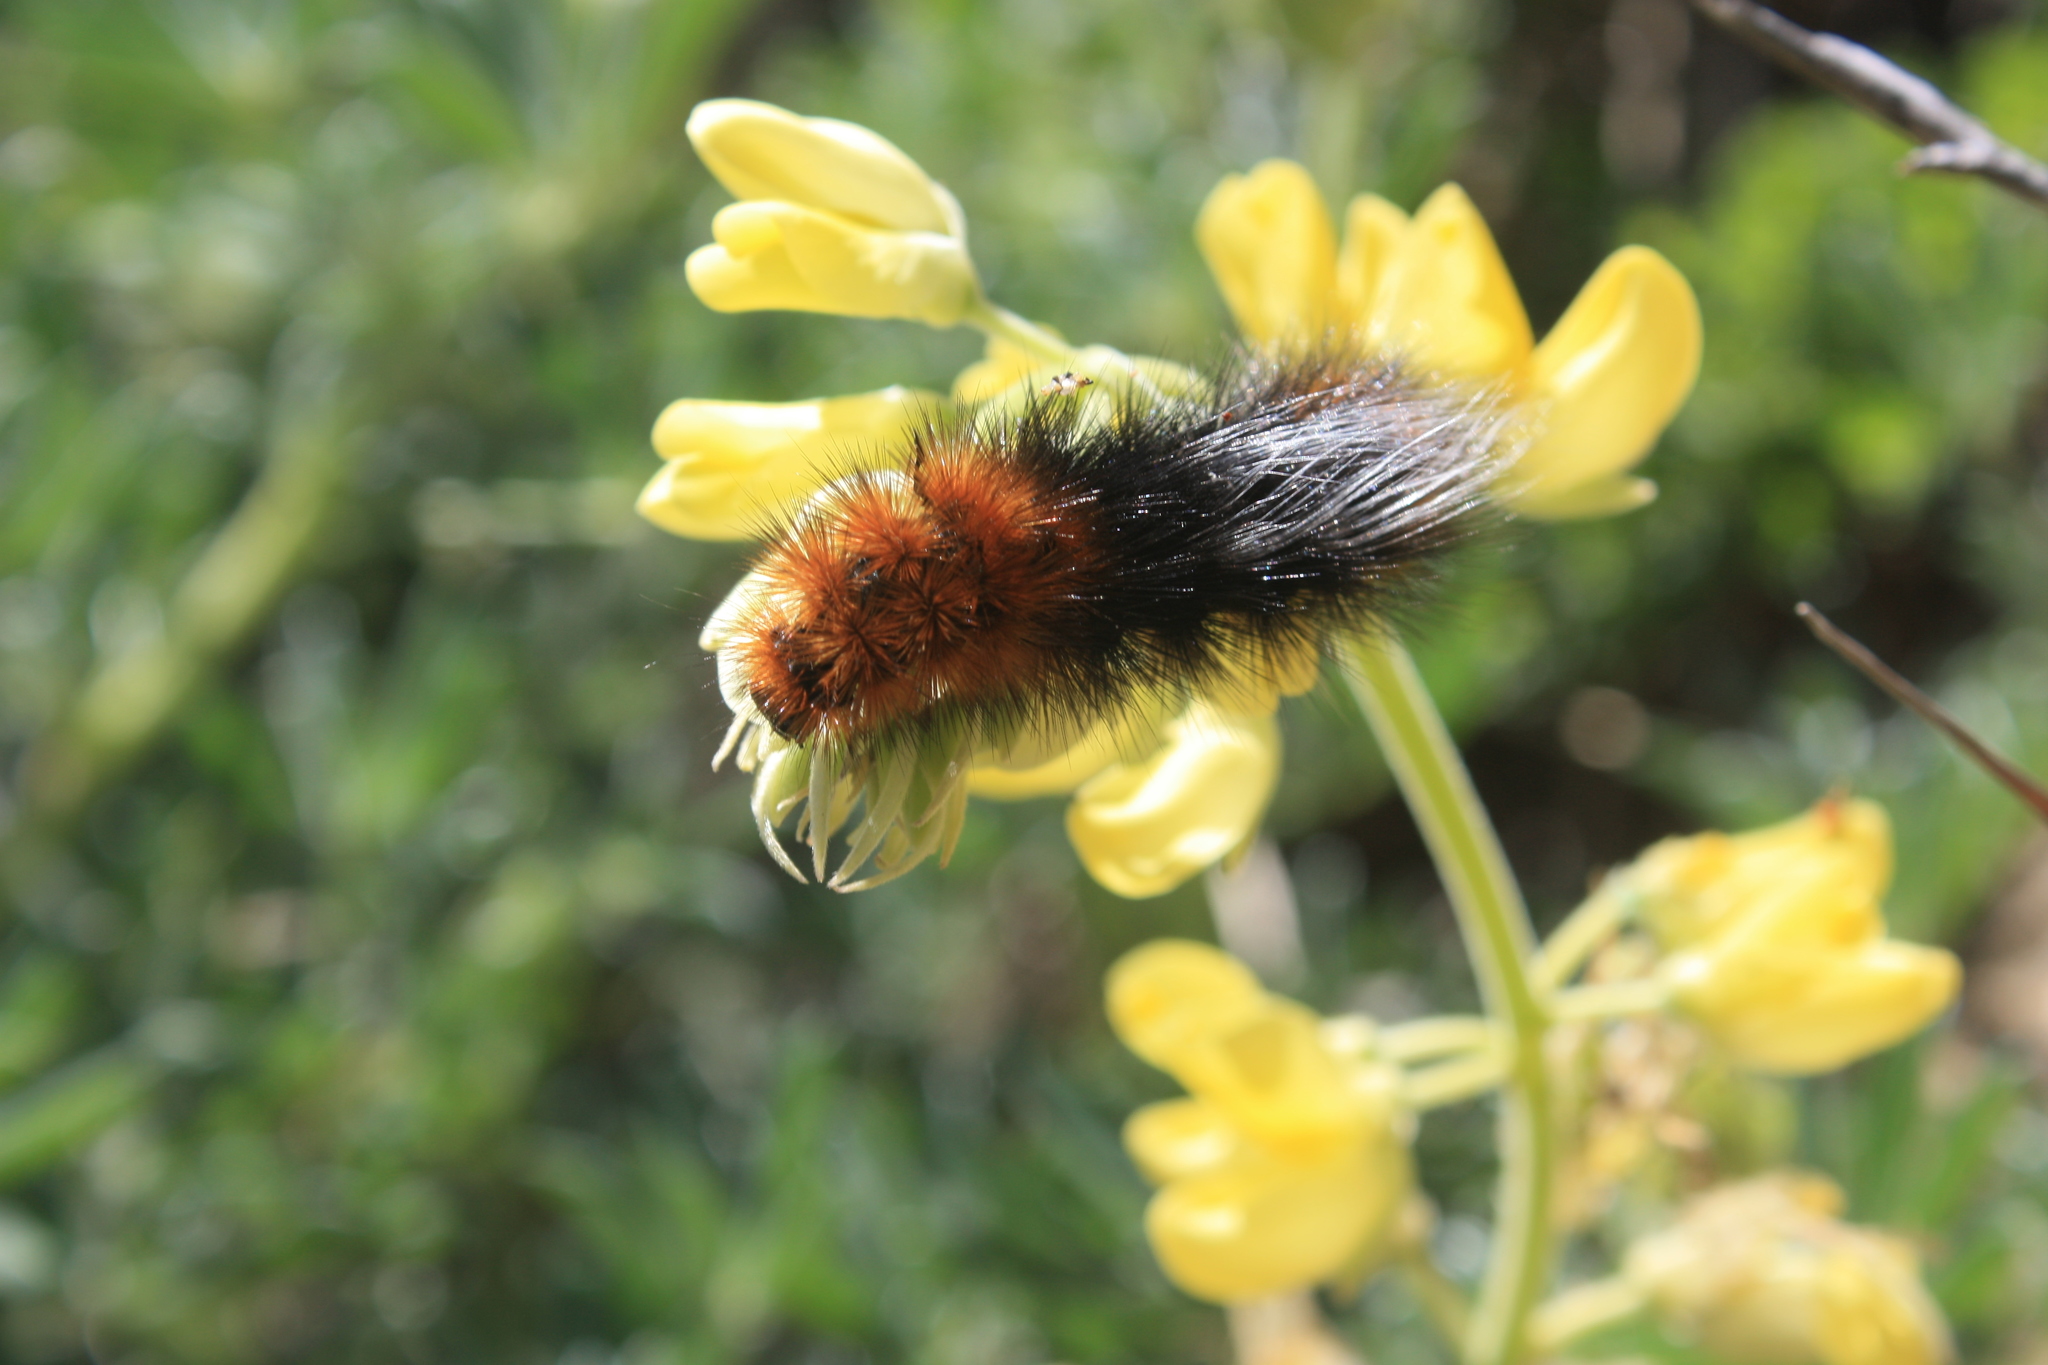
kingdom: Animalia
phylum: Arthropoda
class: Insecta
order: Lepidoptera
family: Erebidae
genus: Arctia
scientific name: Arctia tigrina
